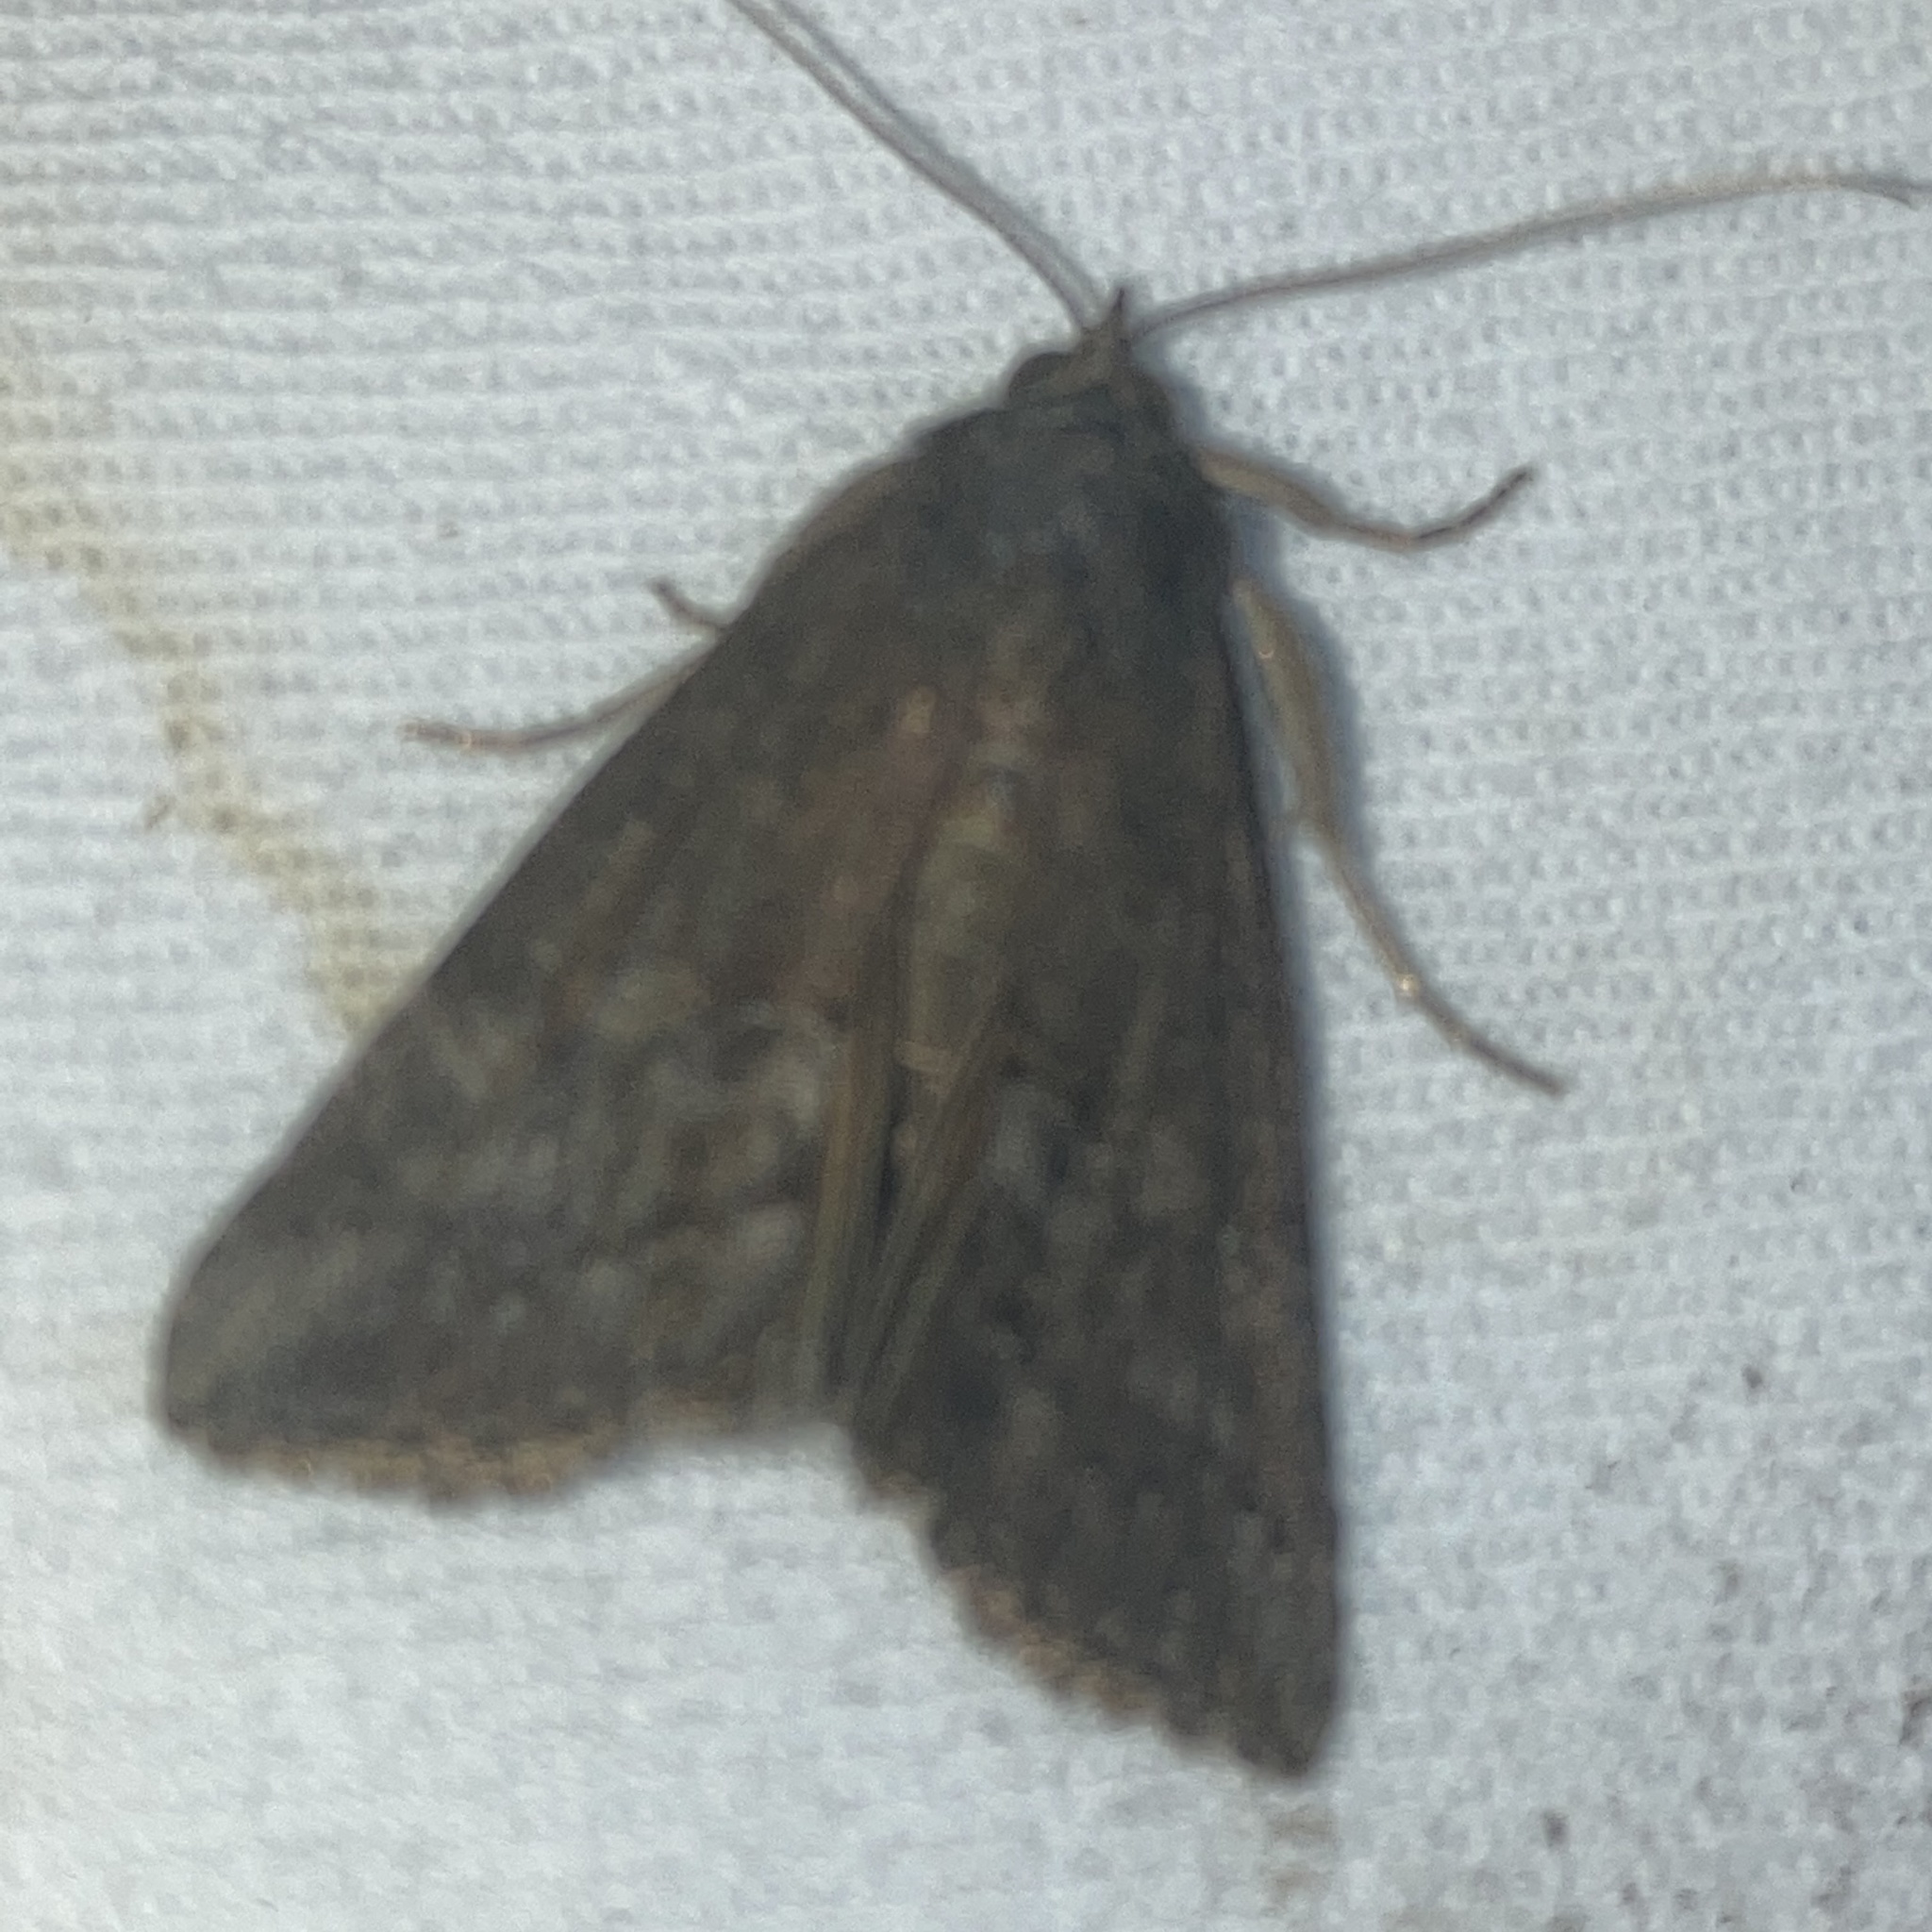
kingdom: Animalia
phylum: Arthropoda
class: Insecta
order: Lepidoptera
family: Erebidae
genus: Hypena
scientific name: Hypena scabra
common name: Green cloverworm
